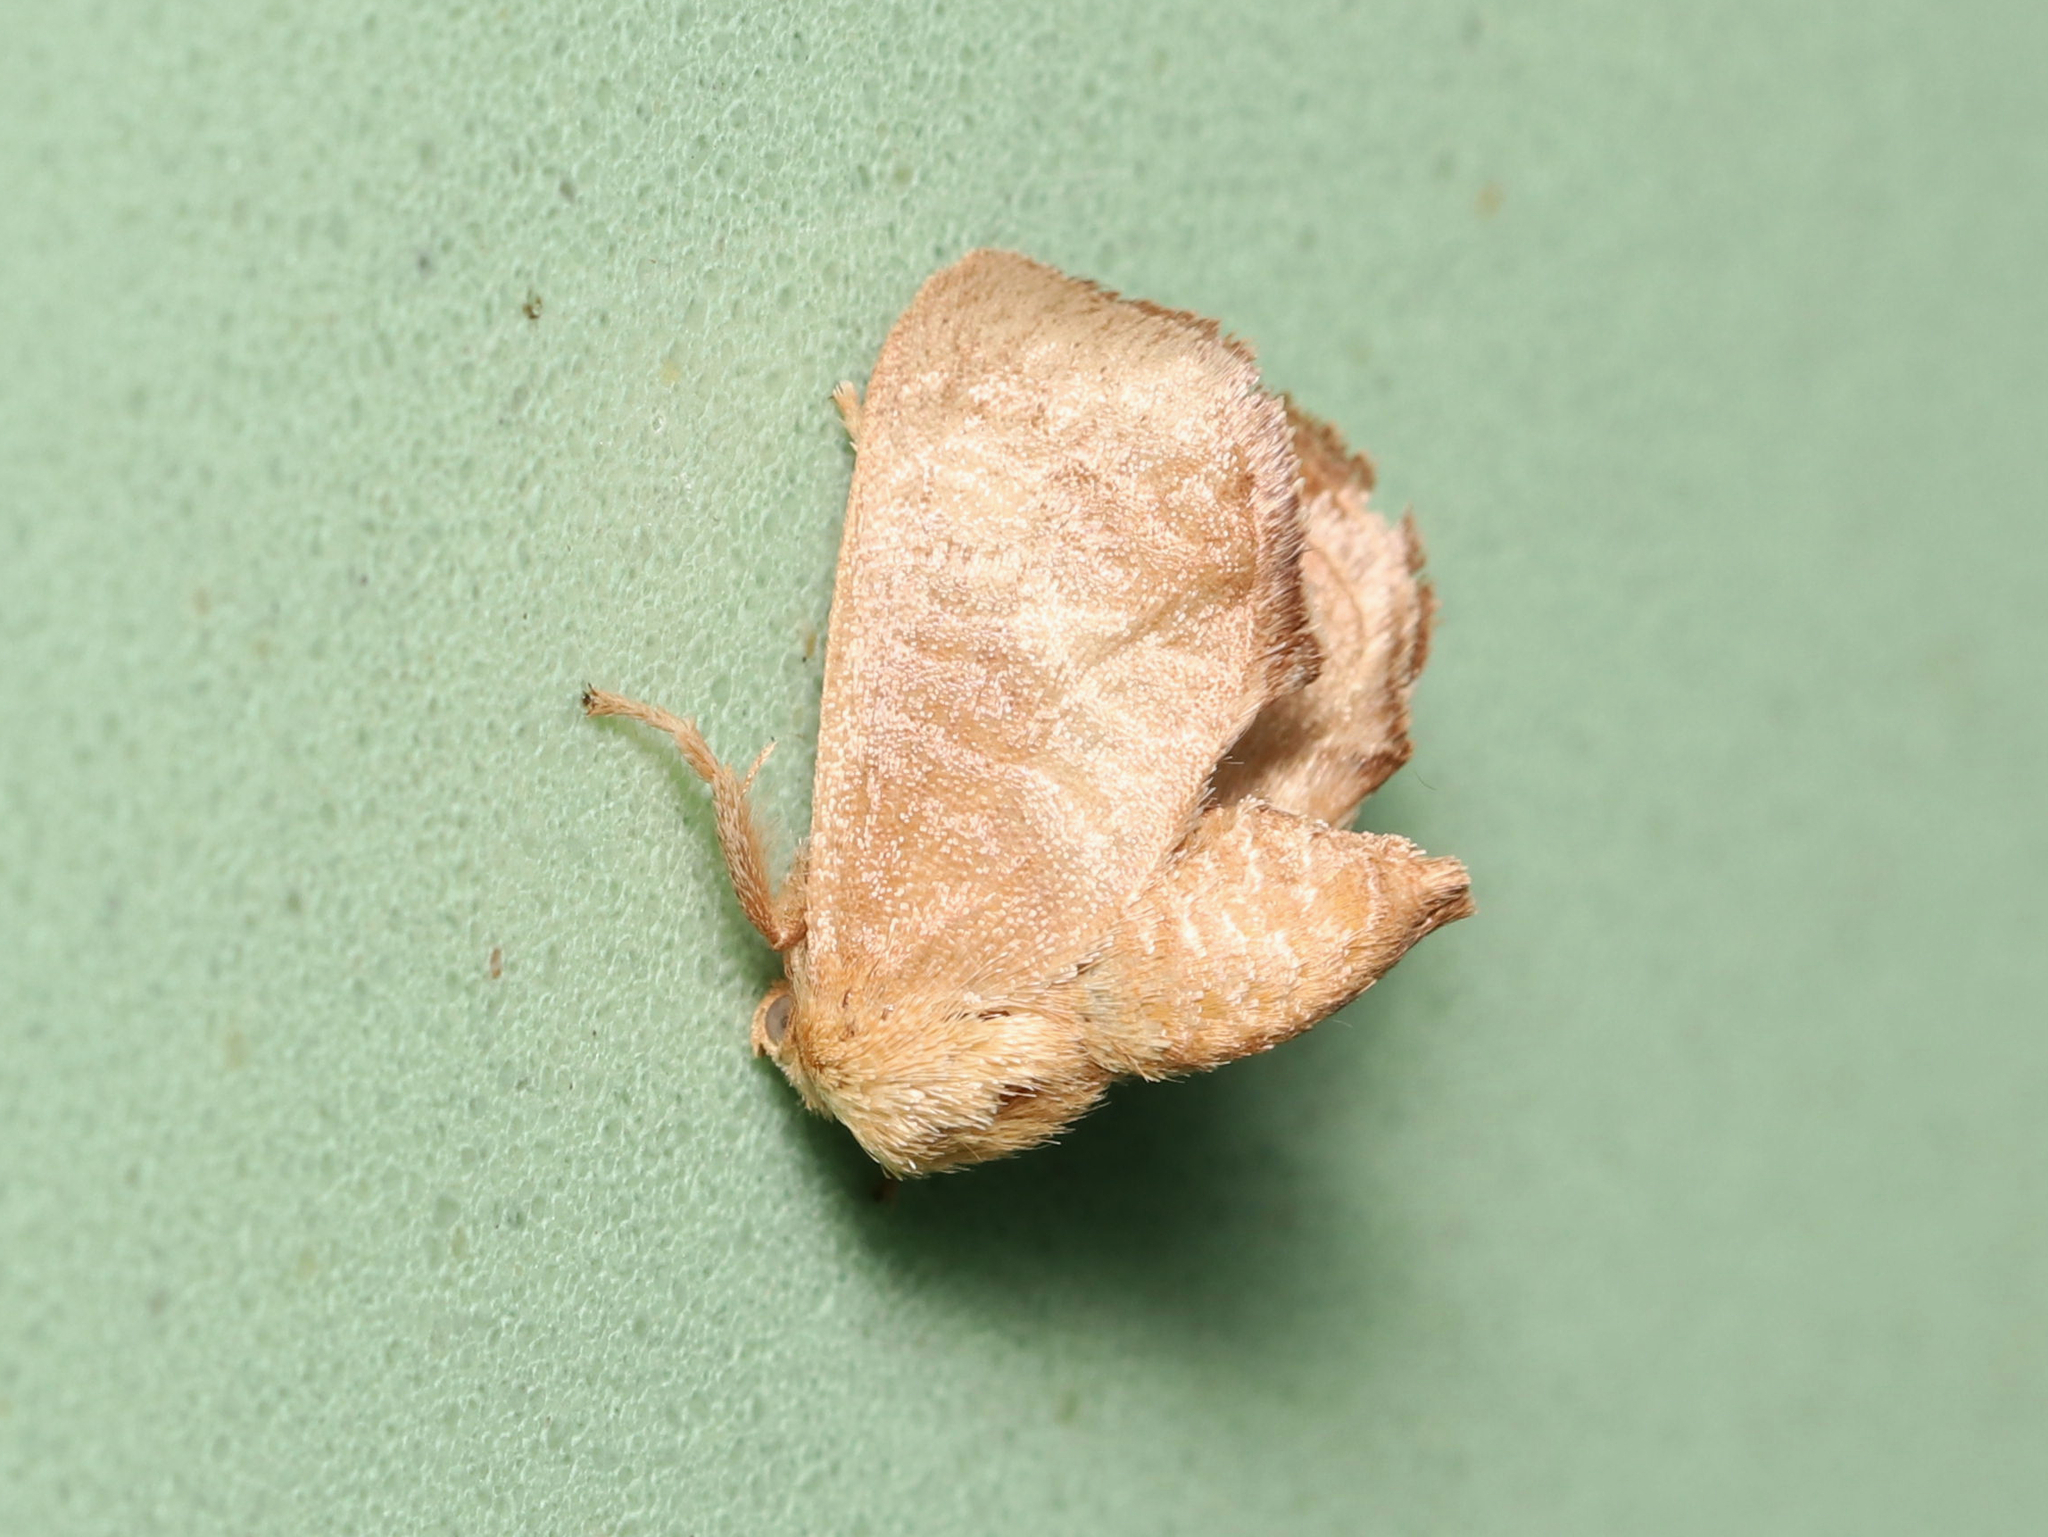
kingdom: Animalia
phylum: Arthropoda
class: Insecta
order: Lepidoptera
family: Limacodidae
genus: Isa
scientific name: Isa textula
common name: Crowned slug moth
